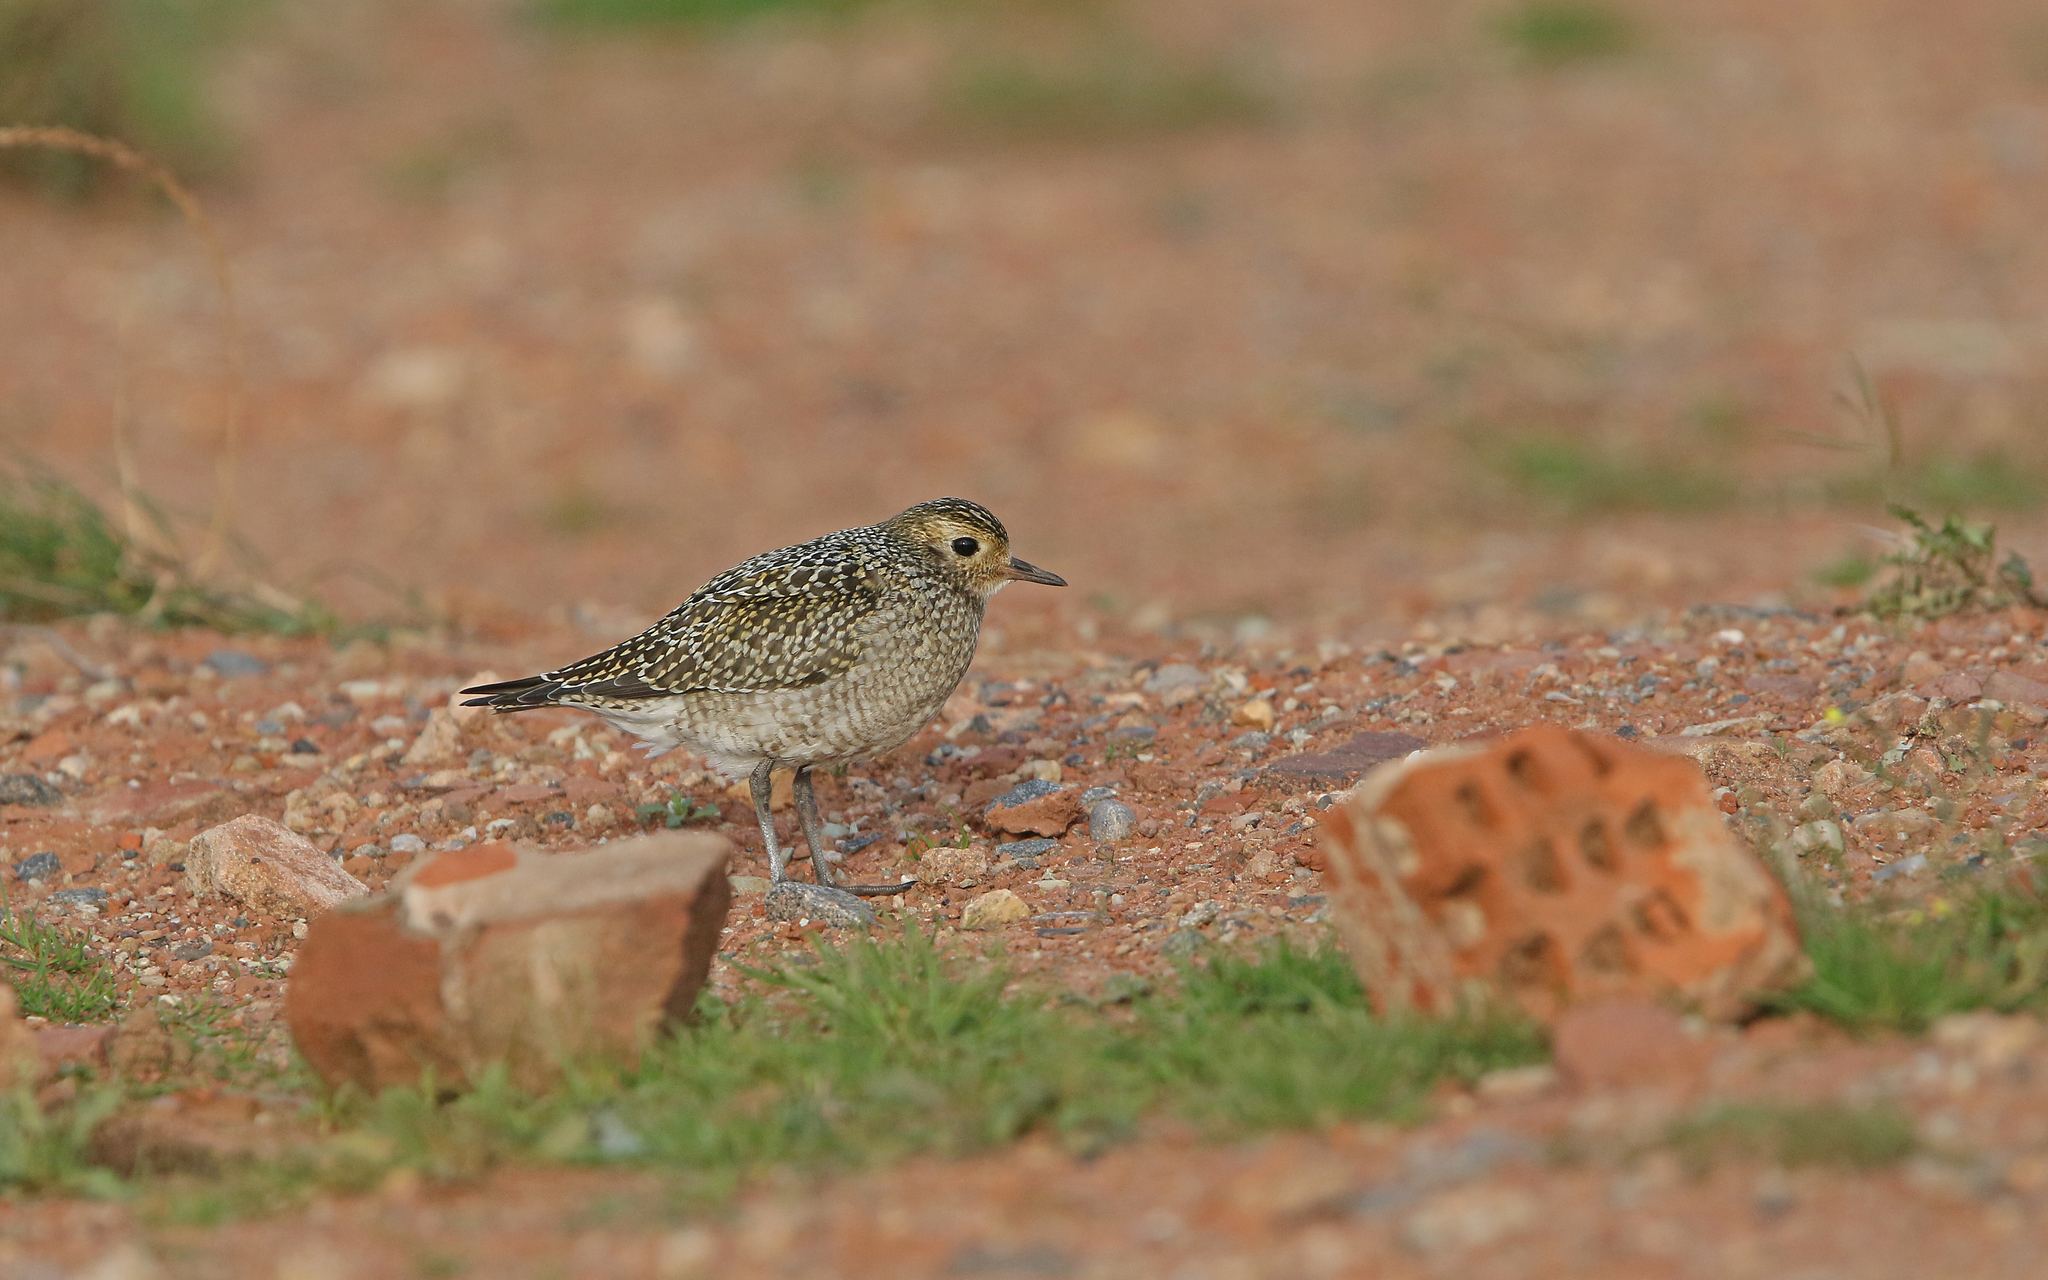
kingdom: Animalia
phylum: Chordata
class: Aves
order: Charadriiformes
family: Charadriidae
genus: Pluvialis
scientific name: Pluvialis apricaria
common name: European golden plover
